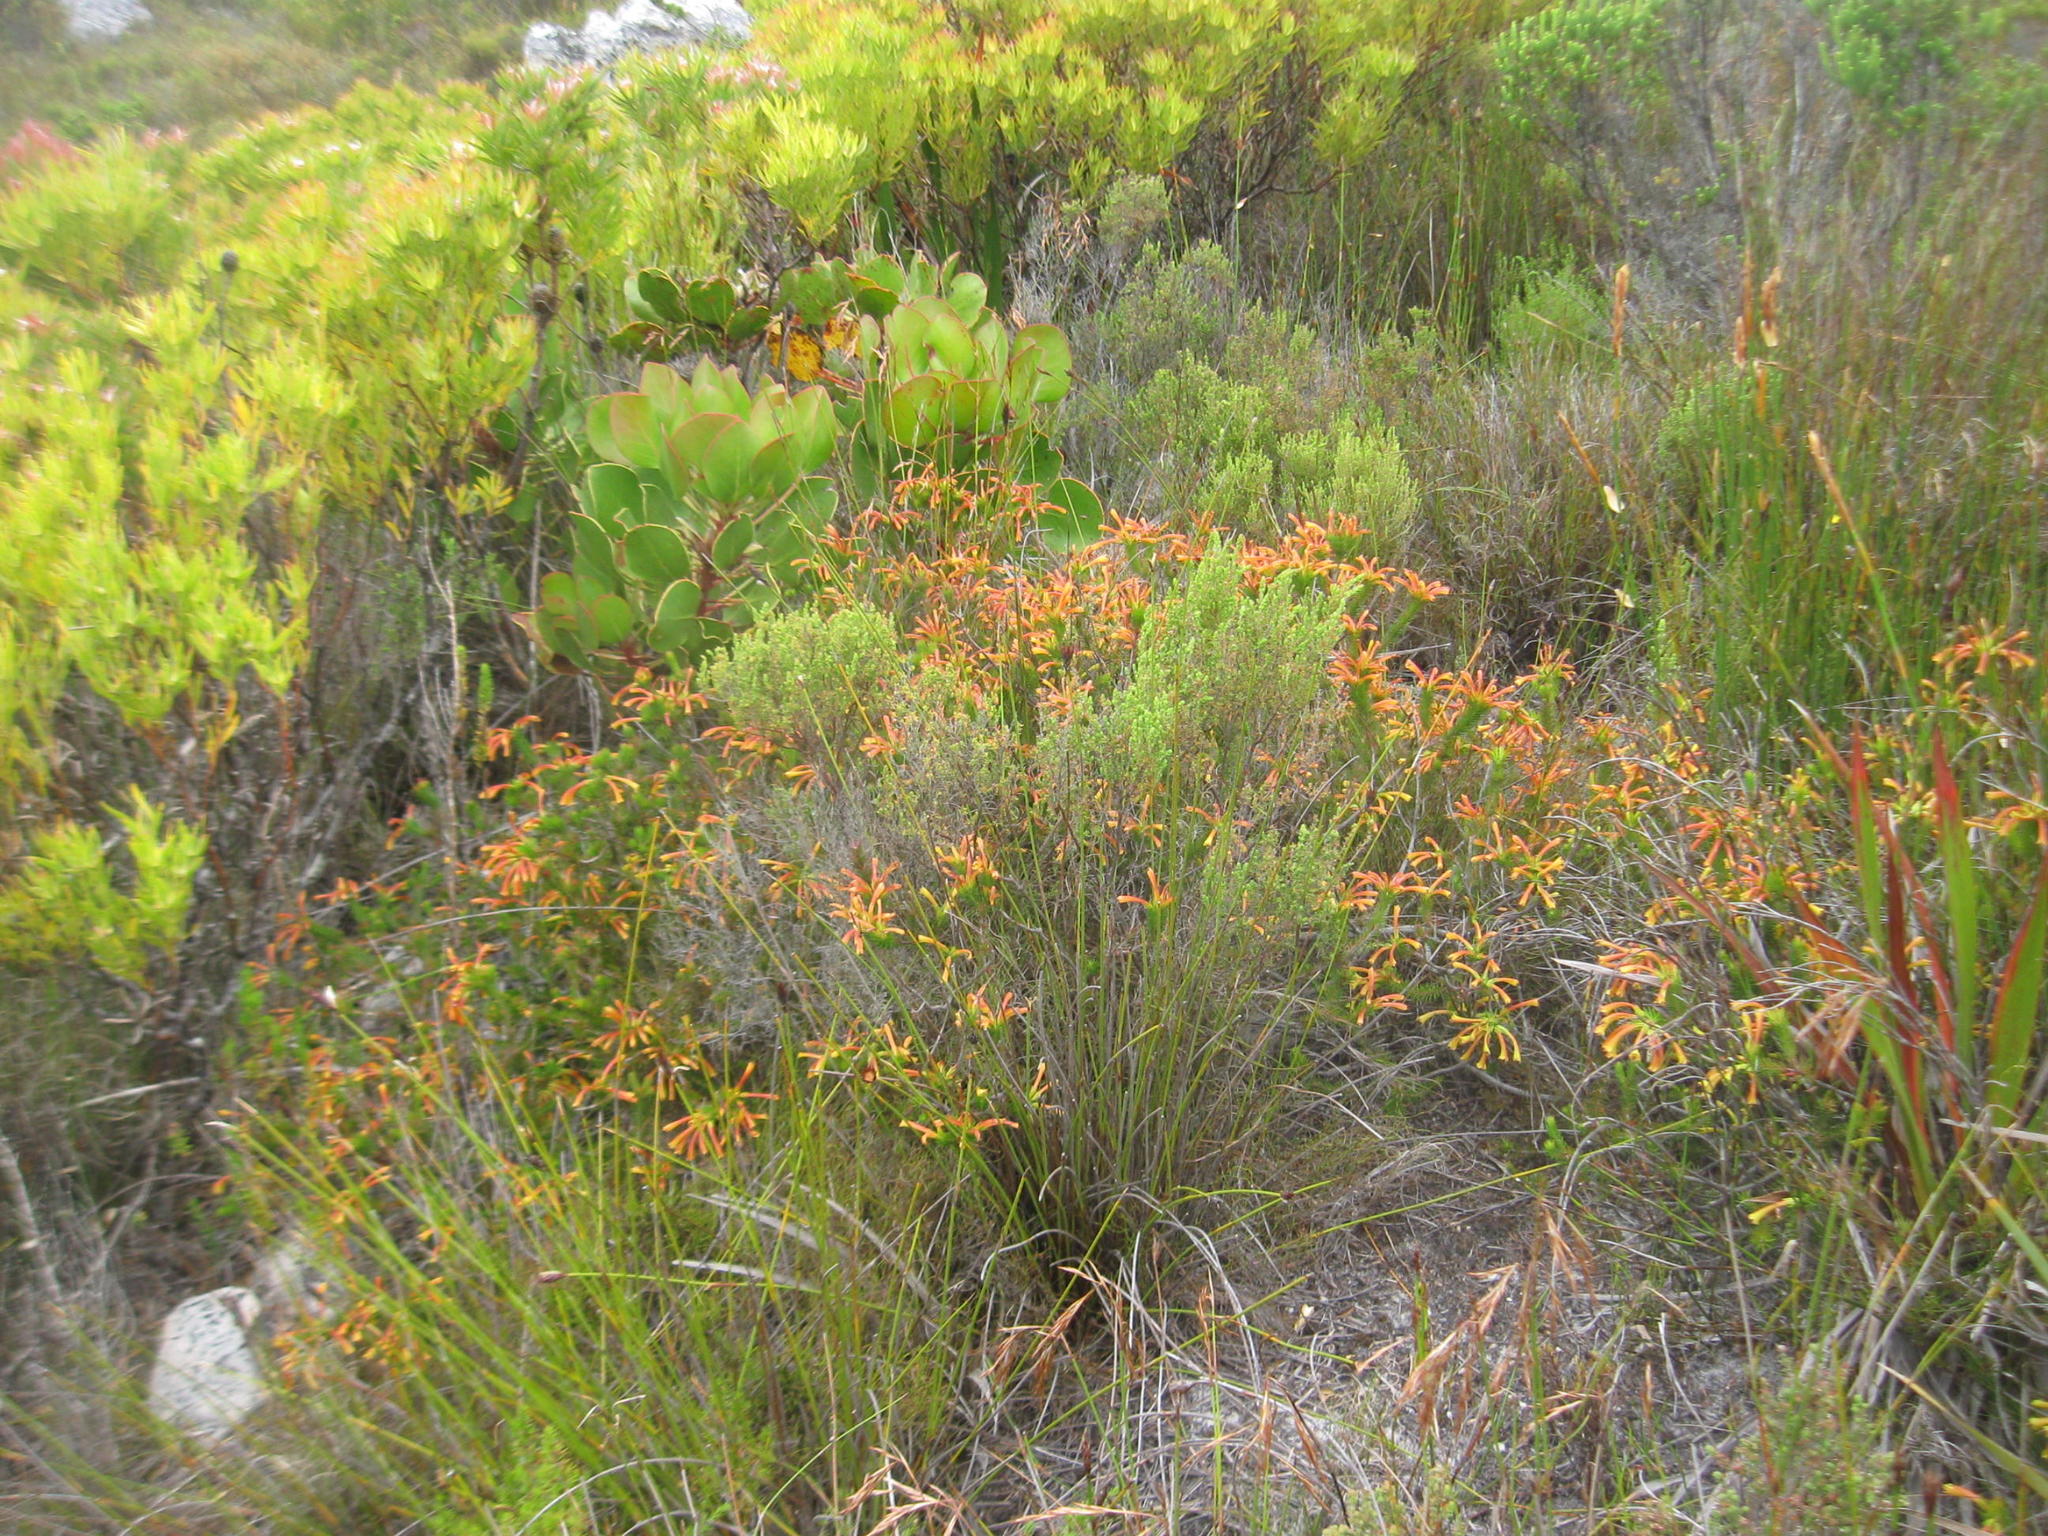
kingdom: Plantae
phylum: Tracheophyta
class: Magnoliopsida
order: Ericales
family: Ericaceae
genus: Erica
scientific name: Erica quadrisulcata
